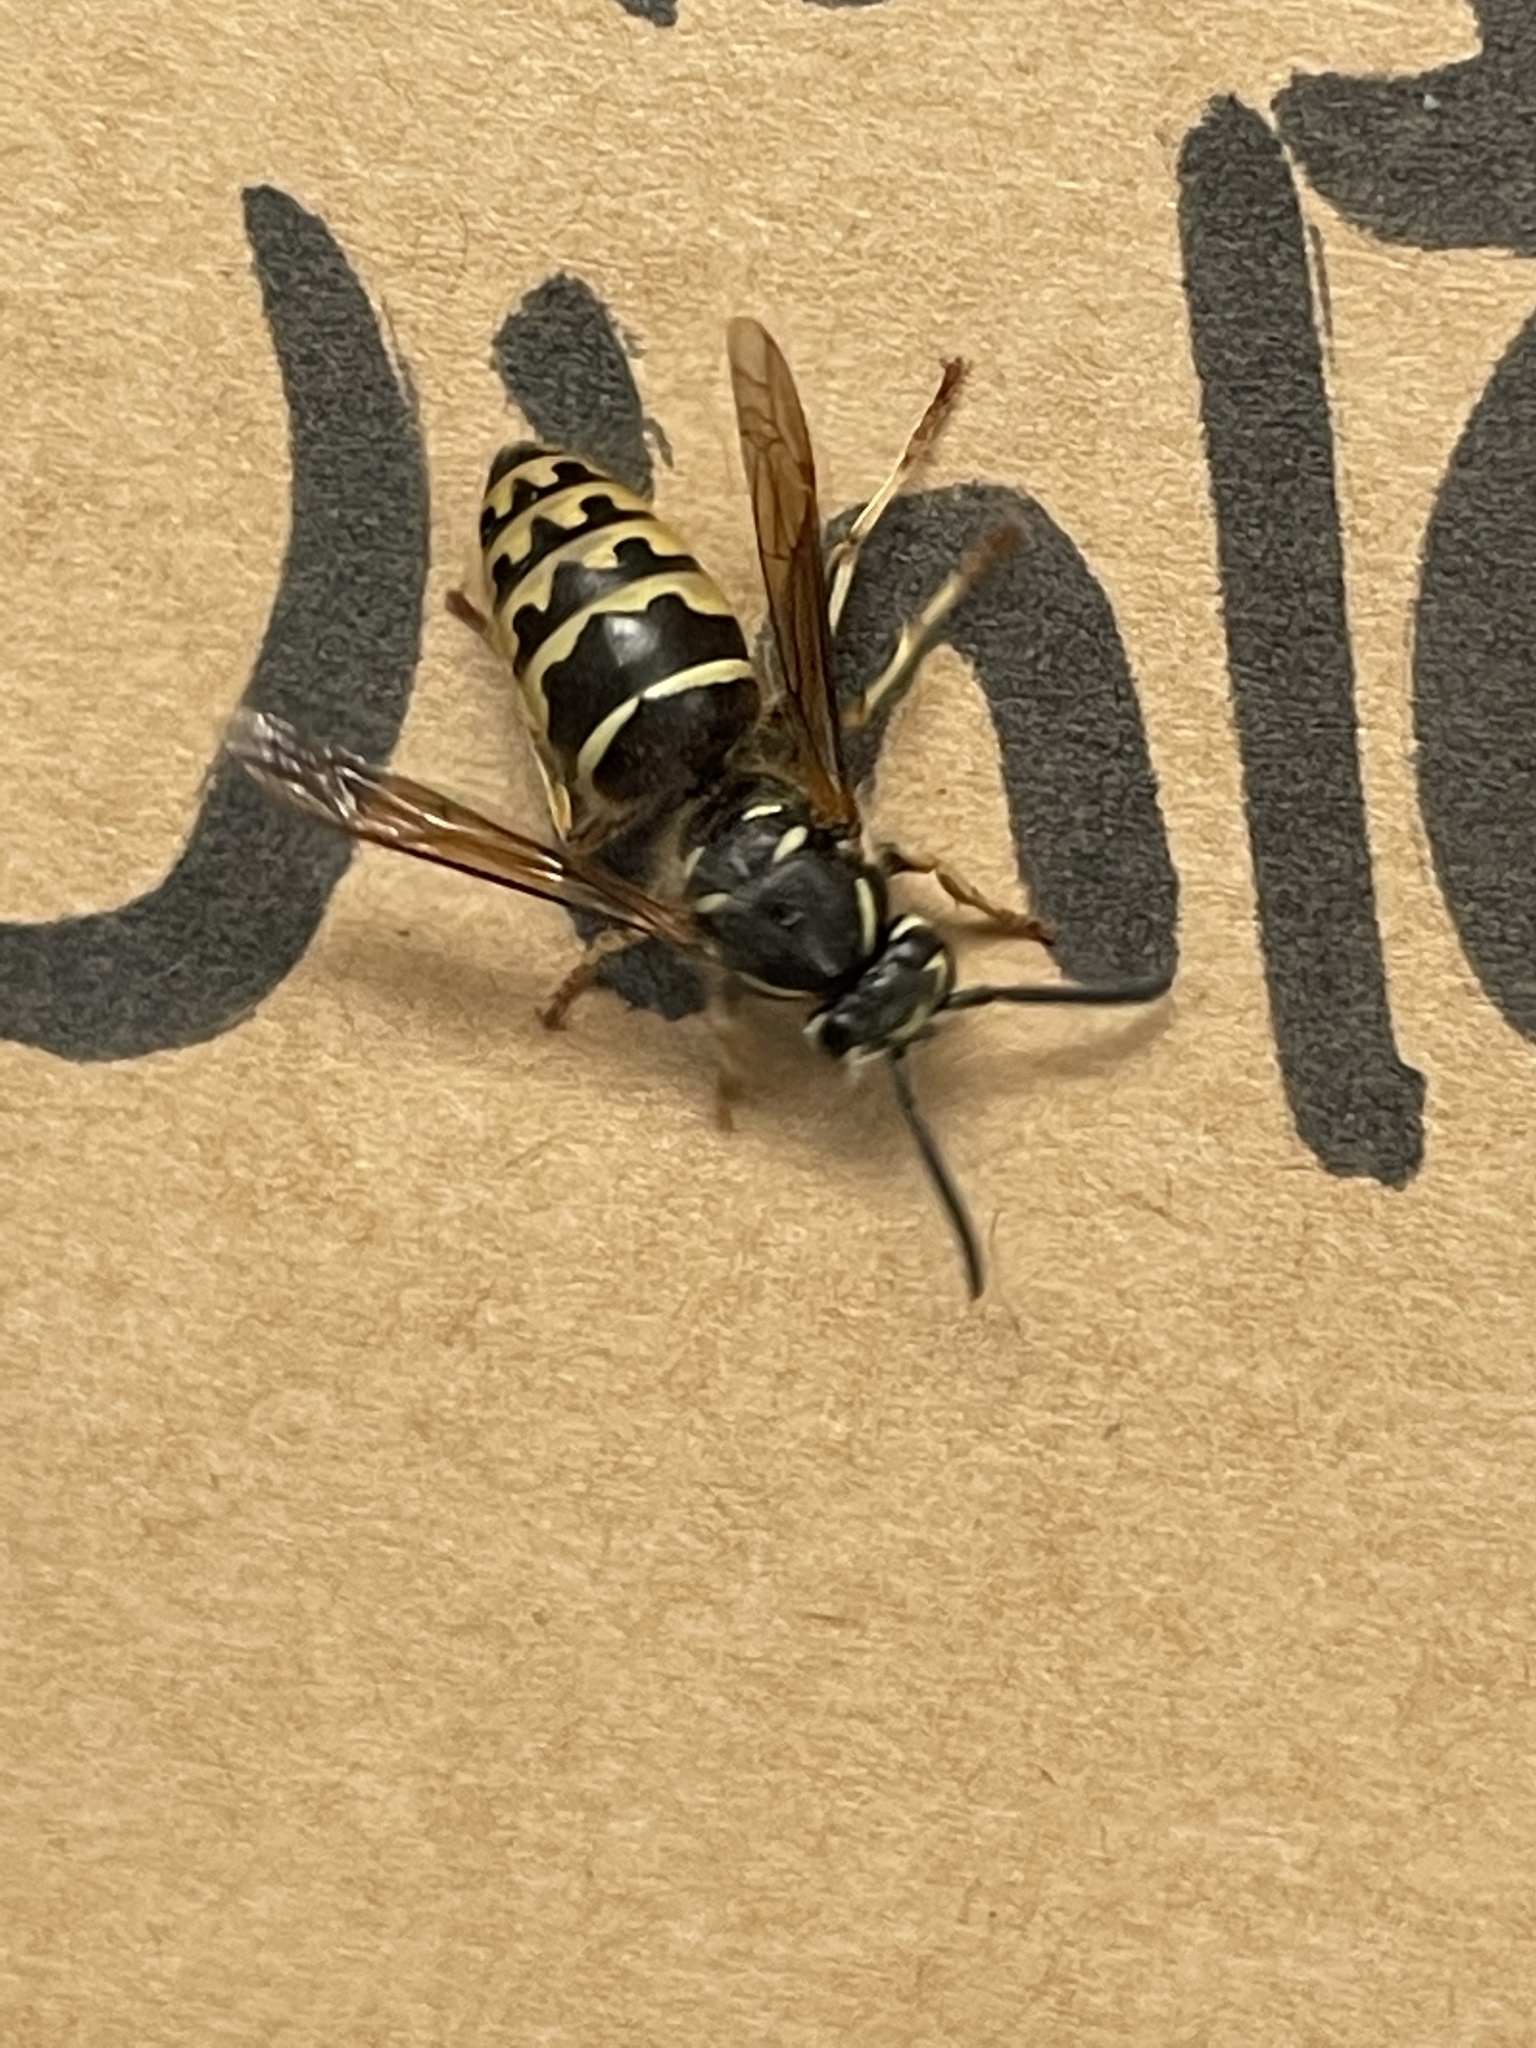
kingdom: Animalia
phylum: Arthropoda
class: Insecta
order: Hymenoptera
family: Vespidae
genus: Vespula
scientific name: Vespula alascensis
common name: Alaska yellowjacket
